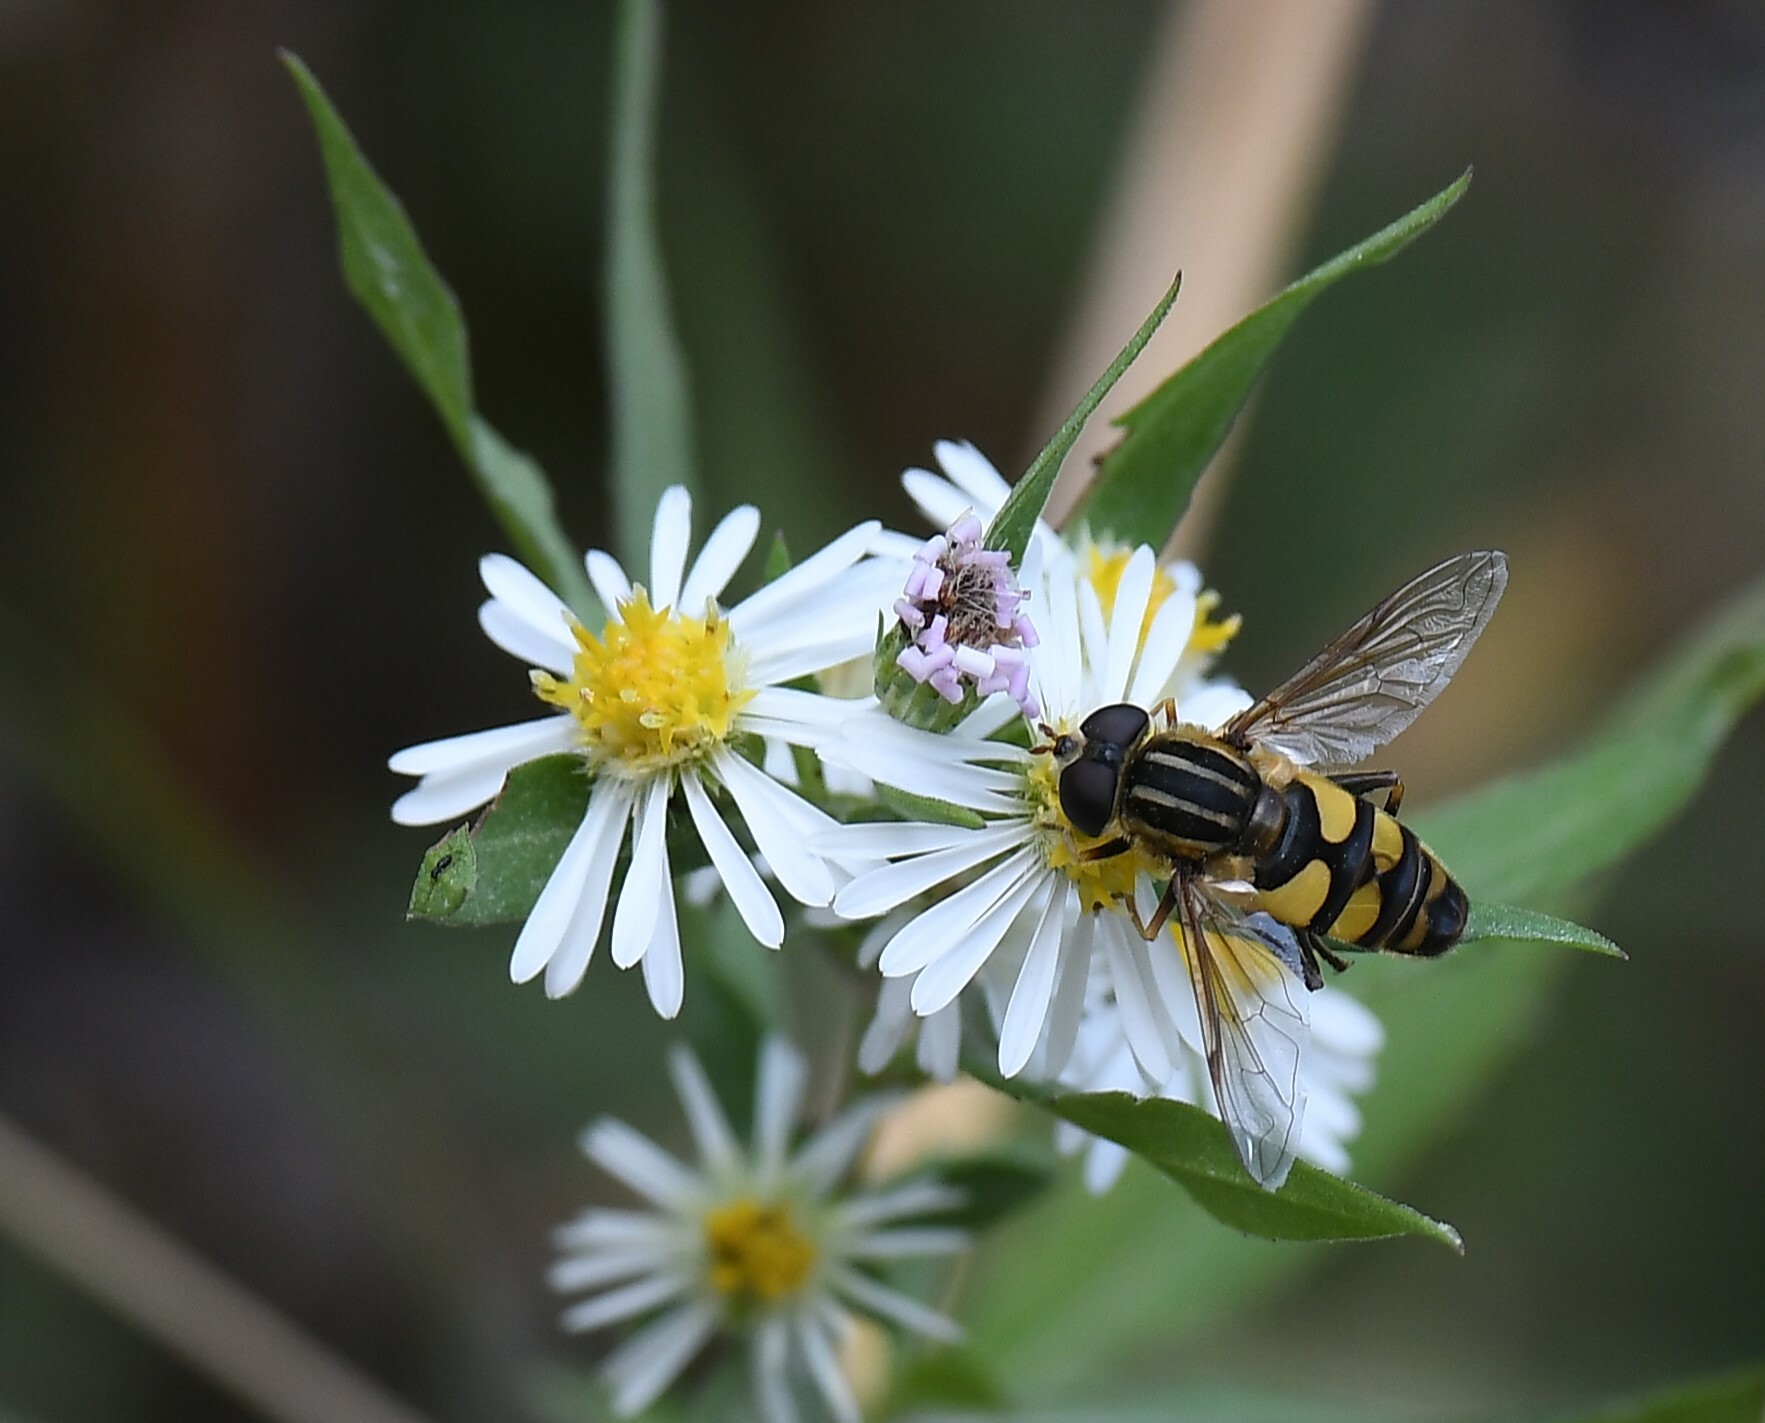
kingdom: Animalia
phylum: Arthropoda
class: Insecta
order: Diptera
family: Syrphidae
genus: Helophilus
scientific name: Helophilus fasciatus
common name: Narrow-headed marsh fly
